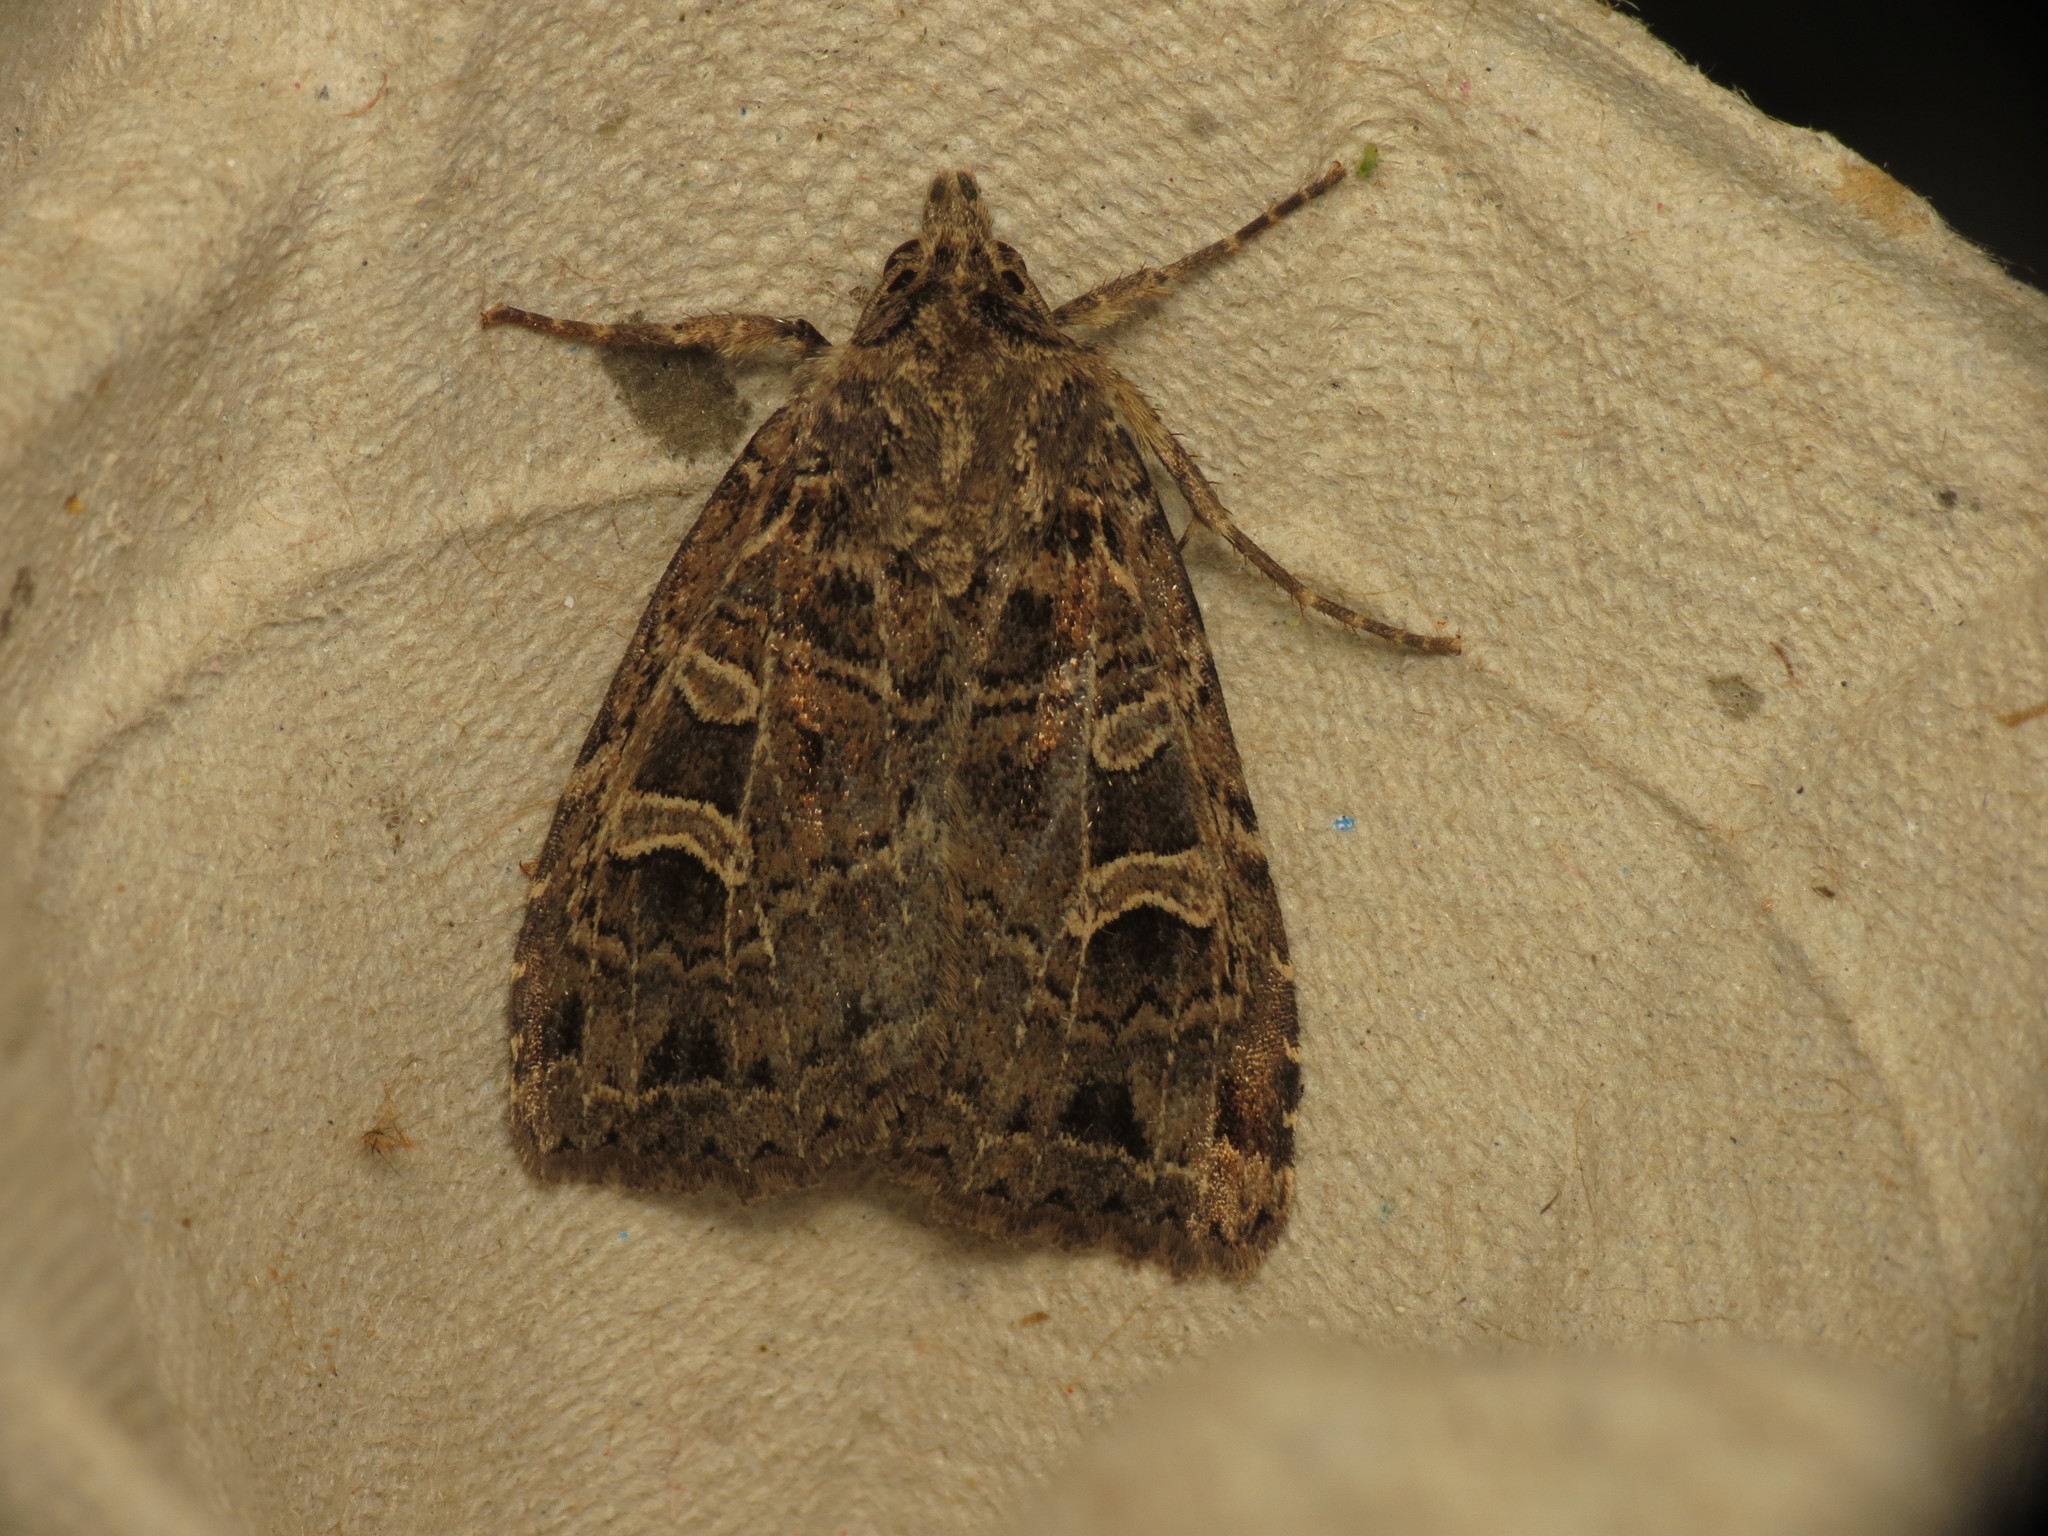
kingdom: Animalia
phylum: Arthropoda
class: Insecta
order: Lepidoptera
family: Noctuidae
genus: Naenia
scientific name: Naenia typica
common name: Gothic
